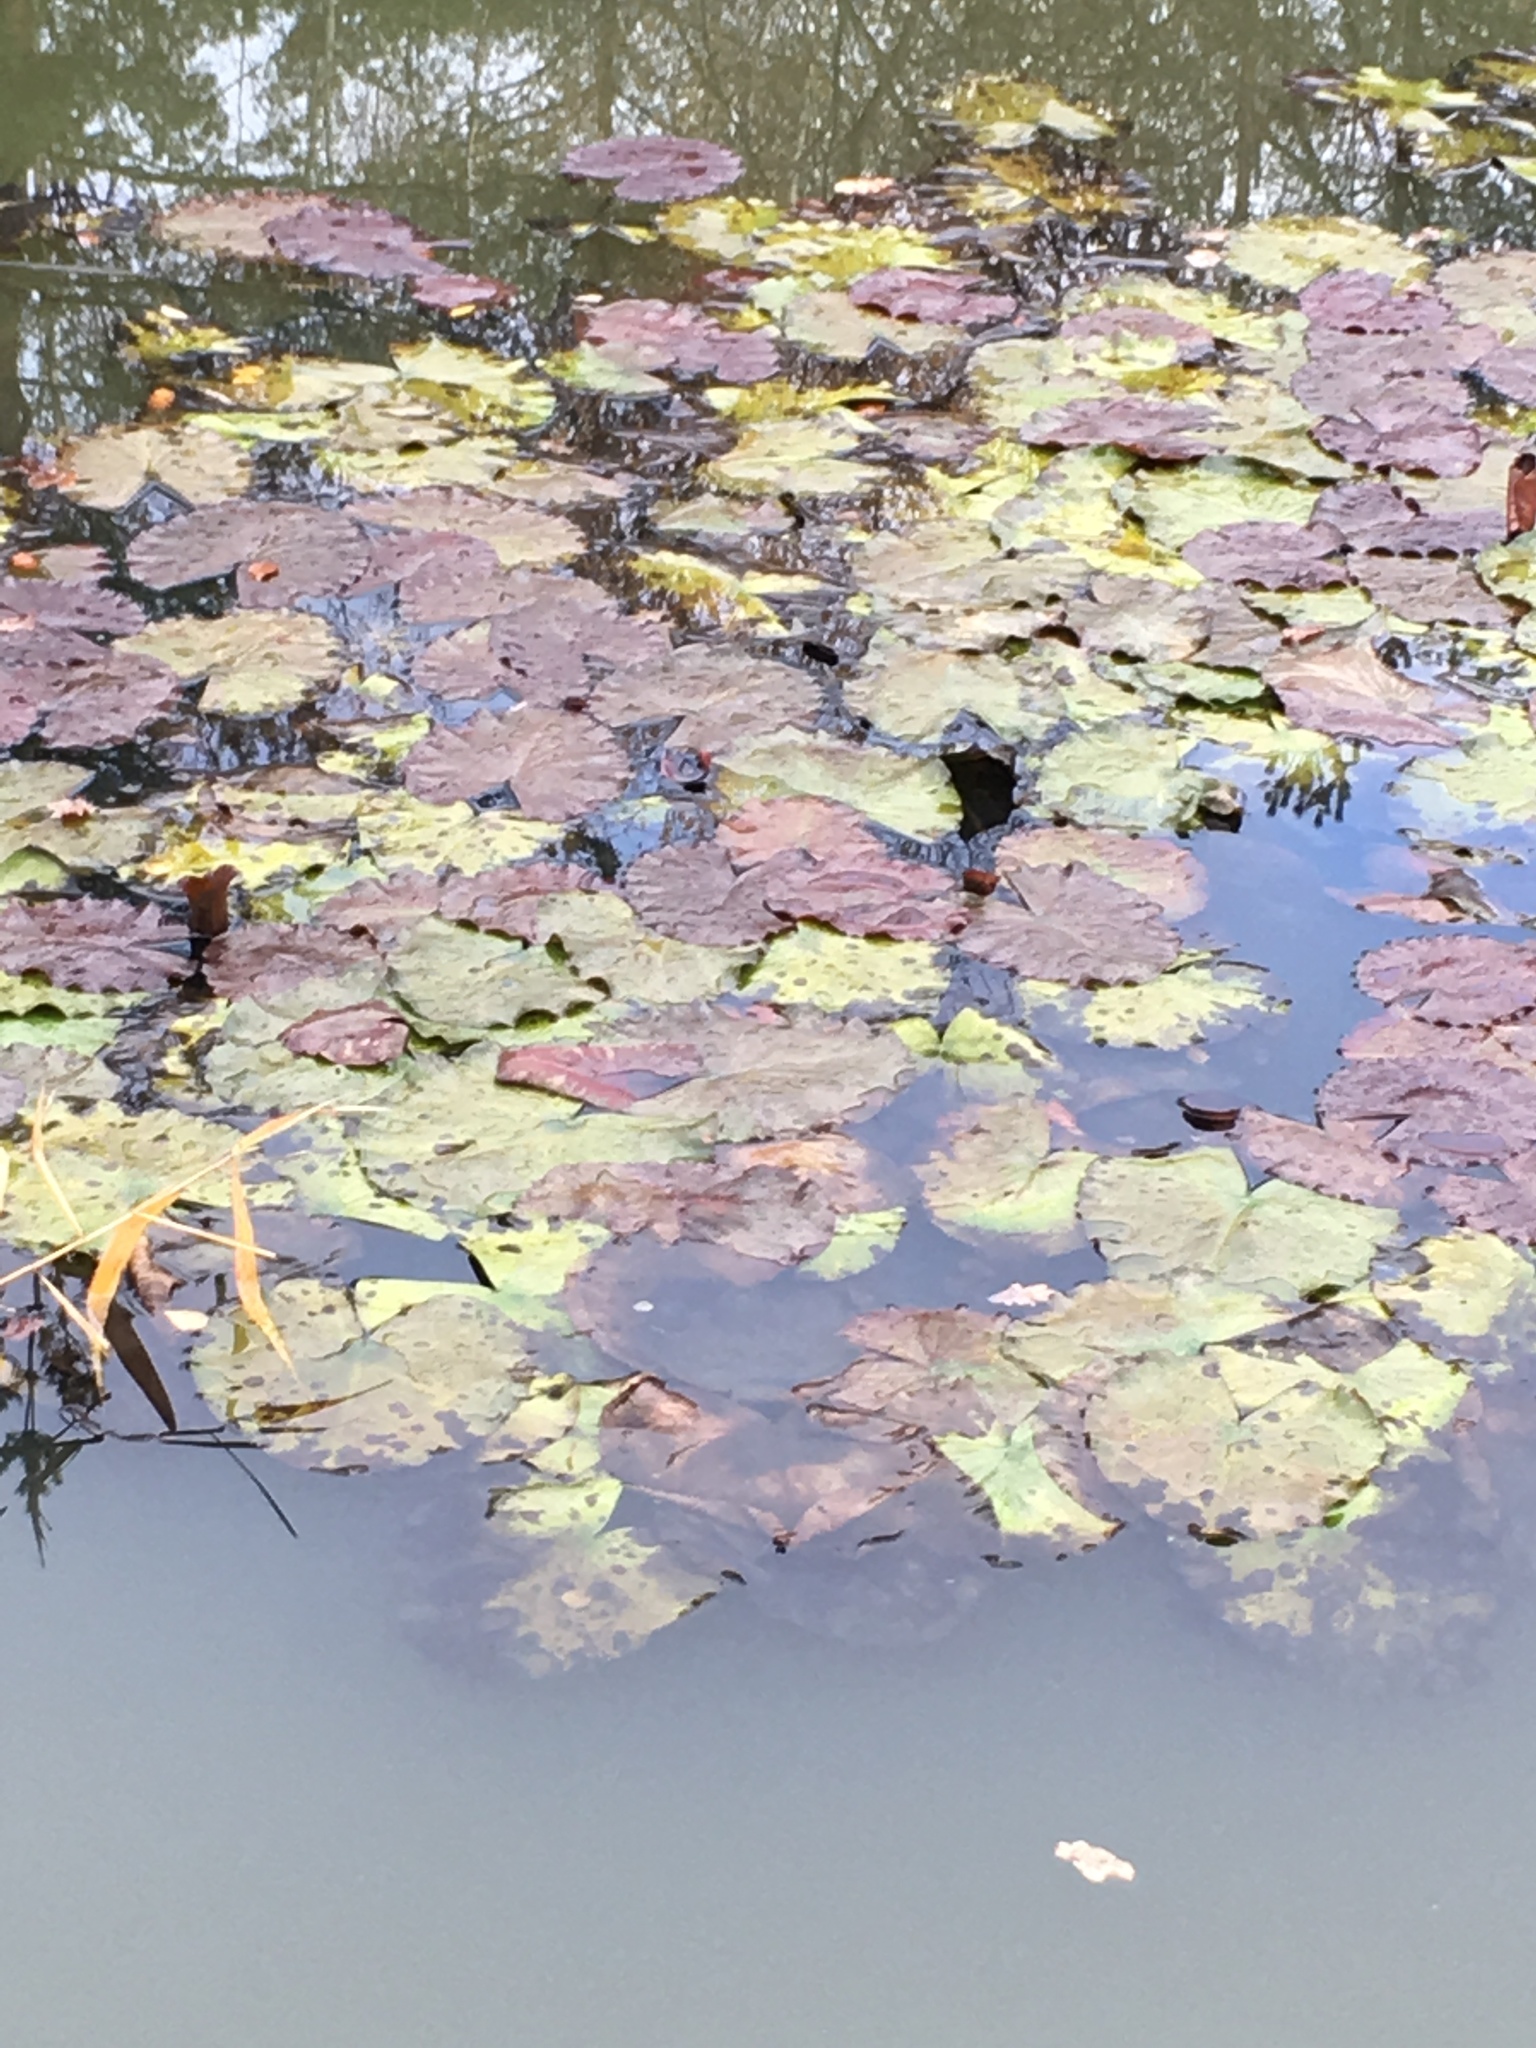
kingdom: Plantae
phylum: Tracheophyta
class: Magnoliopsida
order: Nymphaeales
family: Nymphaeaceae
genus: Nuphar
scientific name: Nuphar lutea
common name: Yellow water-lily
